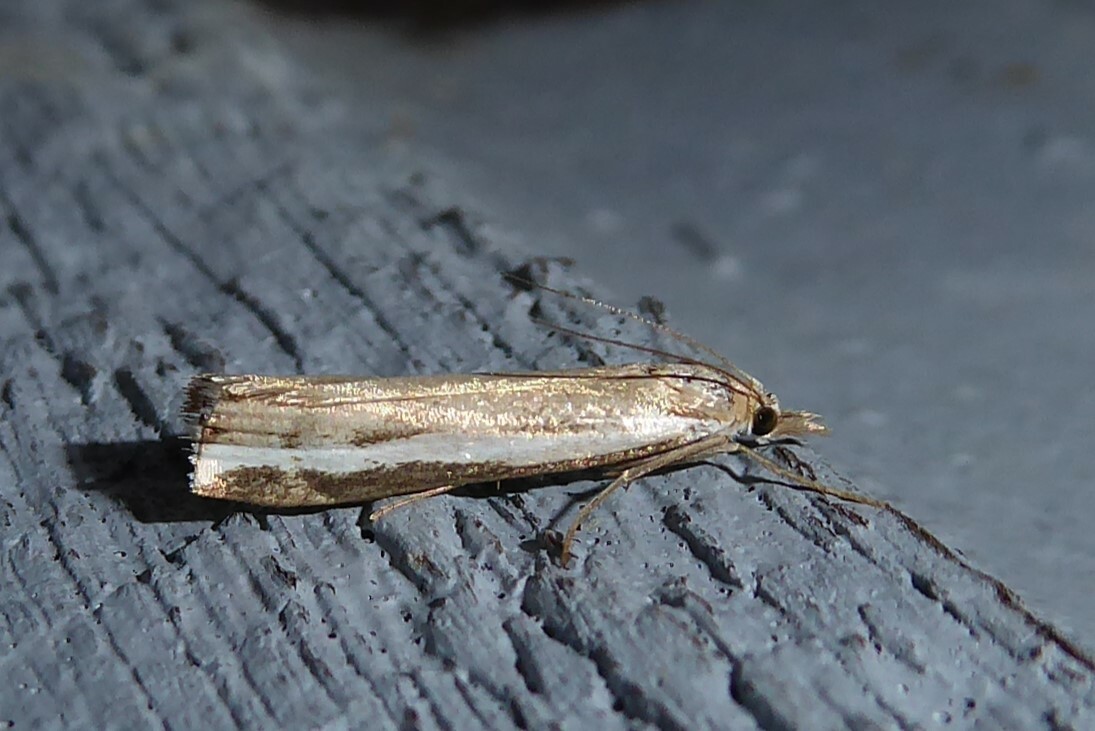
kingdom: Animalia
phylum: Arthropoda
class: Insecta
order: Lepidoptera
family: Crambidae
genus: Orocrambus
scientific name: Orocrambus flexuosellus
